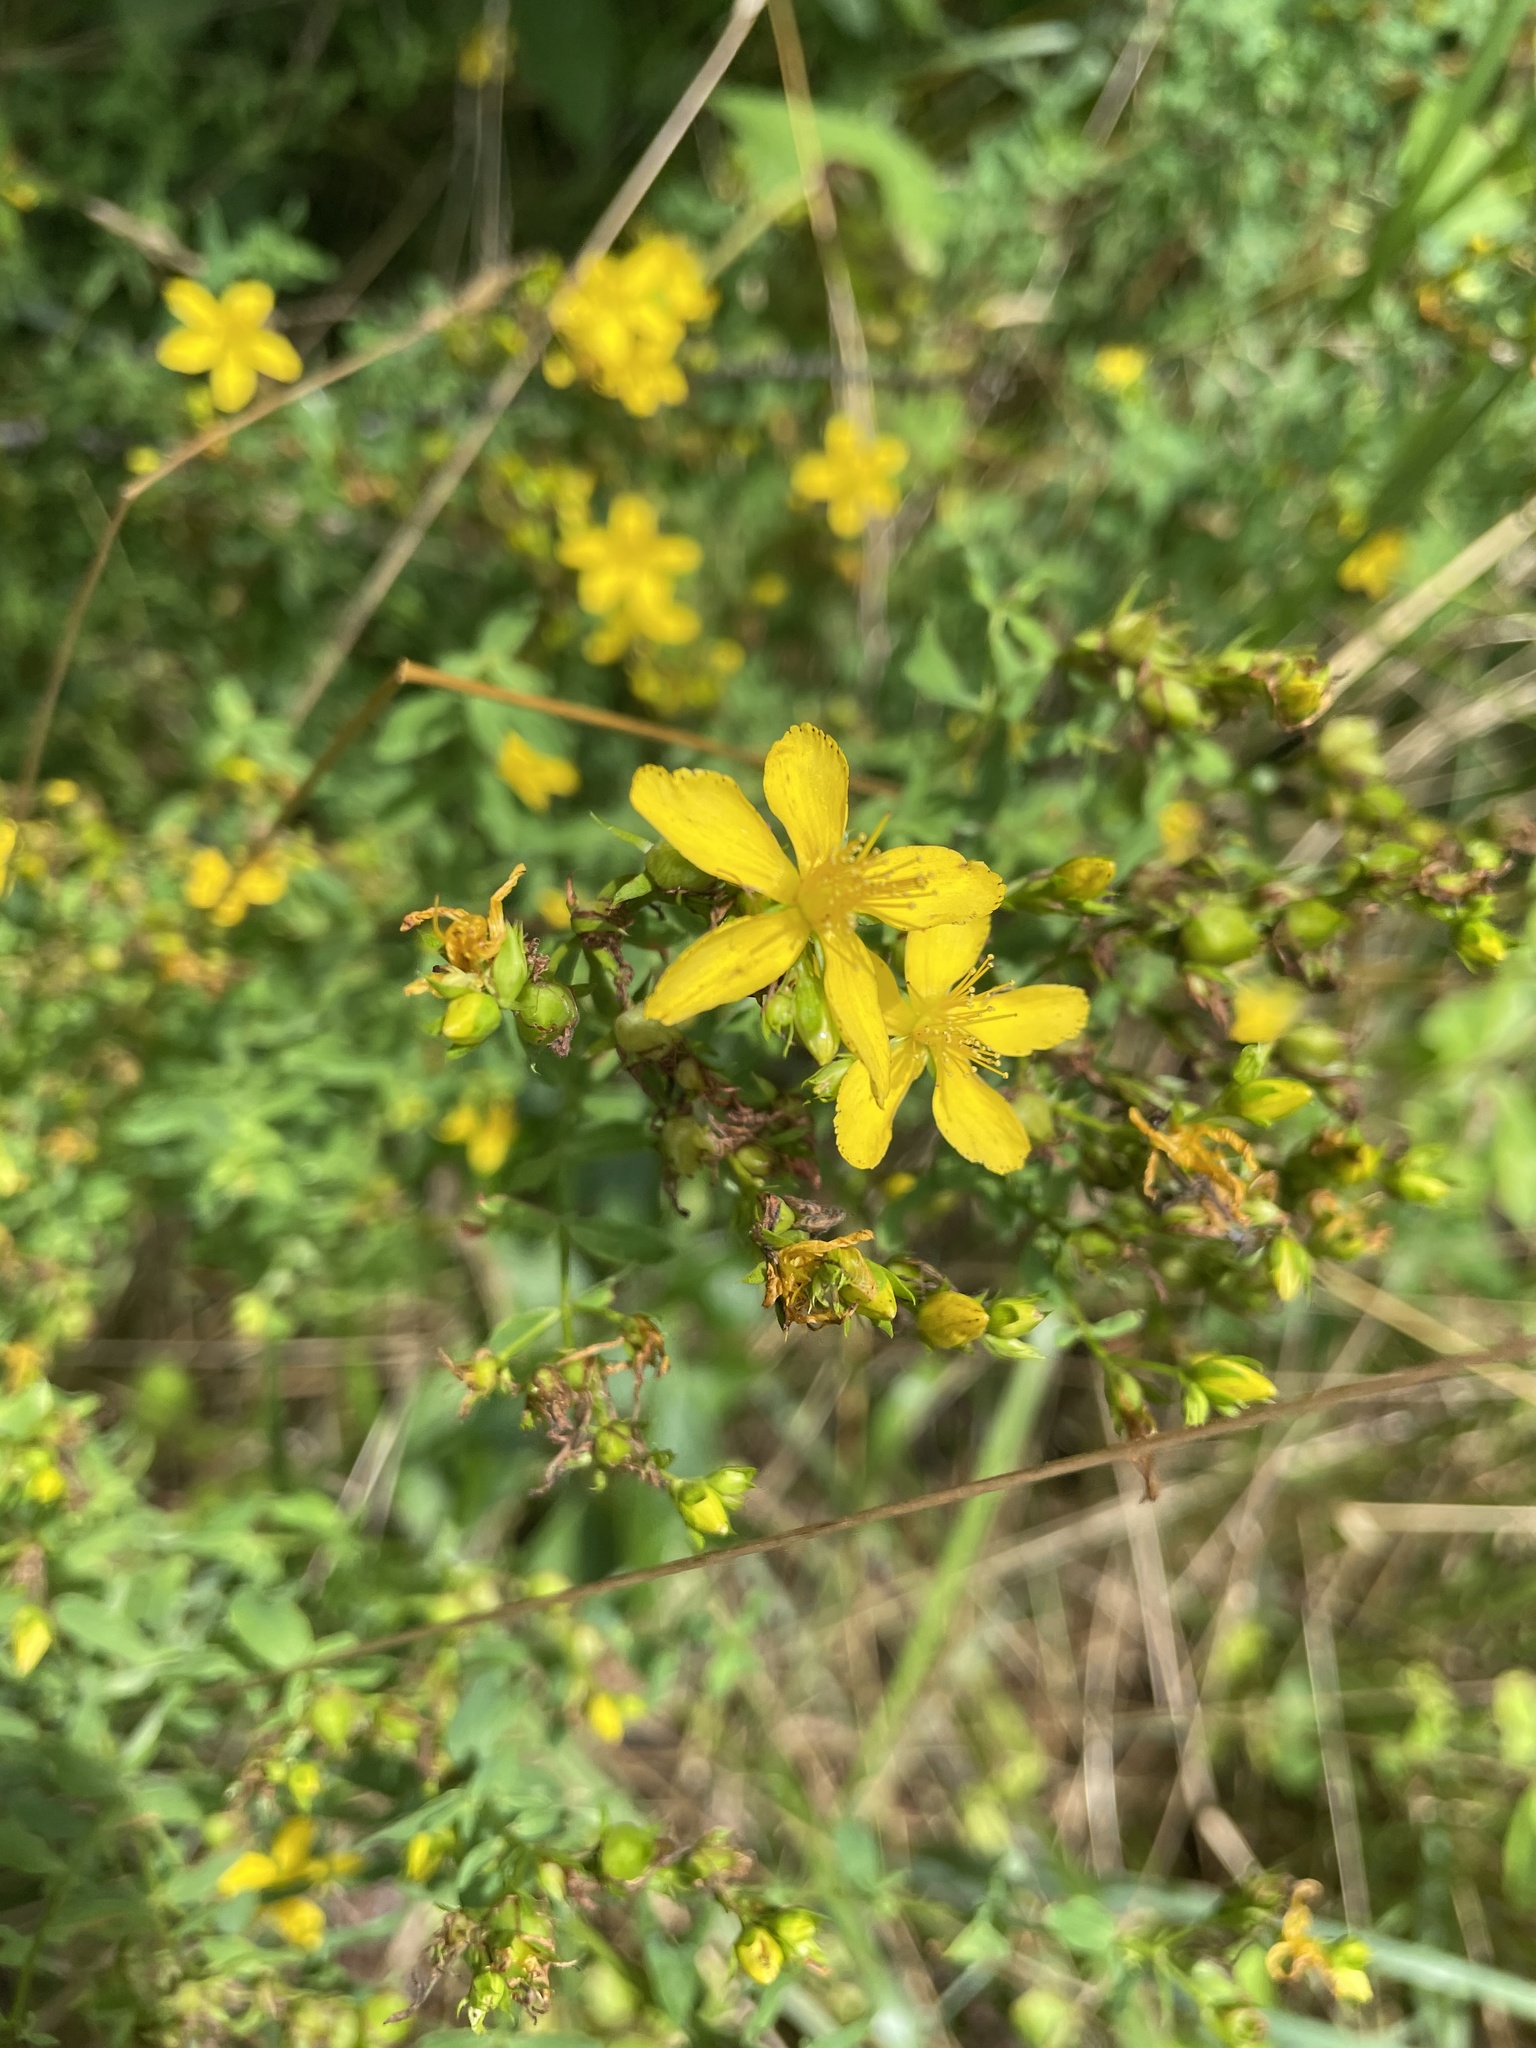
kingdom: Plantae
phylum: Tracheophyta
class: Magnoliopsida
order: Malpighiales
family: Hypericaceae
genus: Hypericum
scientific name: Hypericum perforatum
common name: Common st. johnswort
